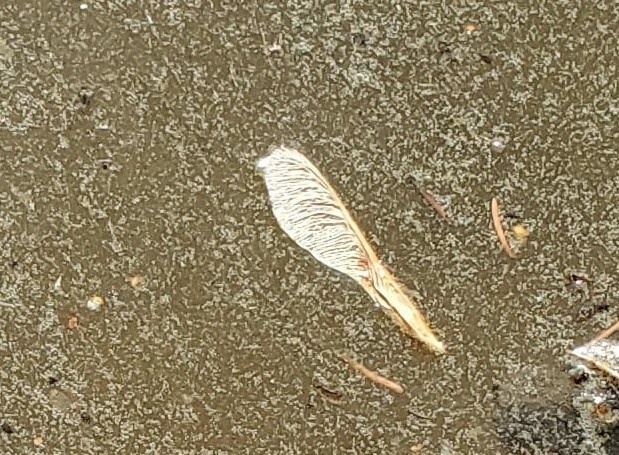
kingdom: Plantae
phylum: Tracheophyta
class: Magnoliopsida
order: Sapindales
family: Sapindaceae
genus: Acer
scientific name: Acer negundo
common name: Ashleaf maple
